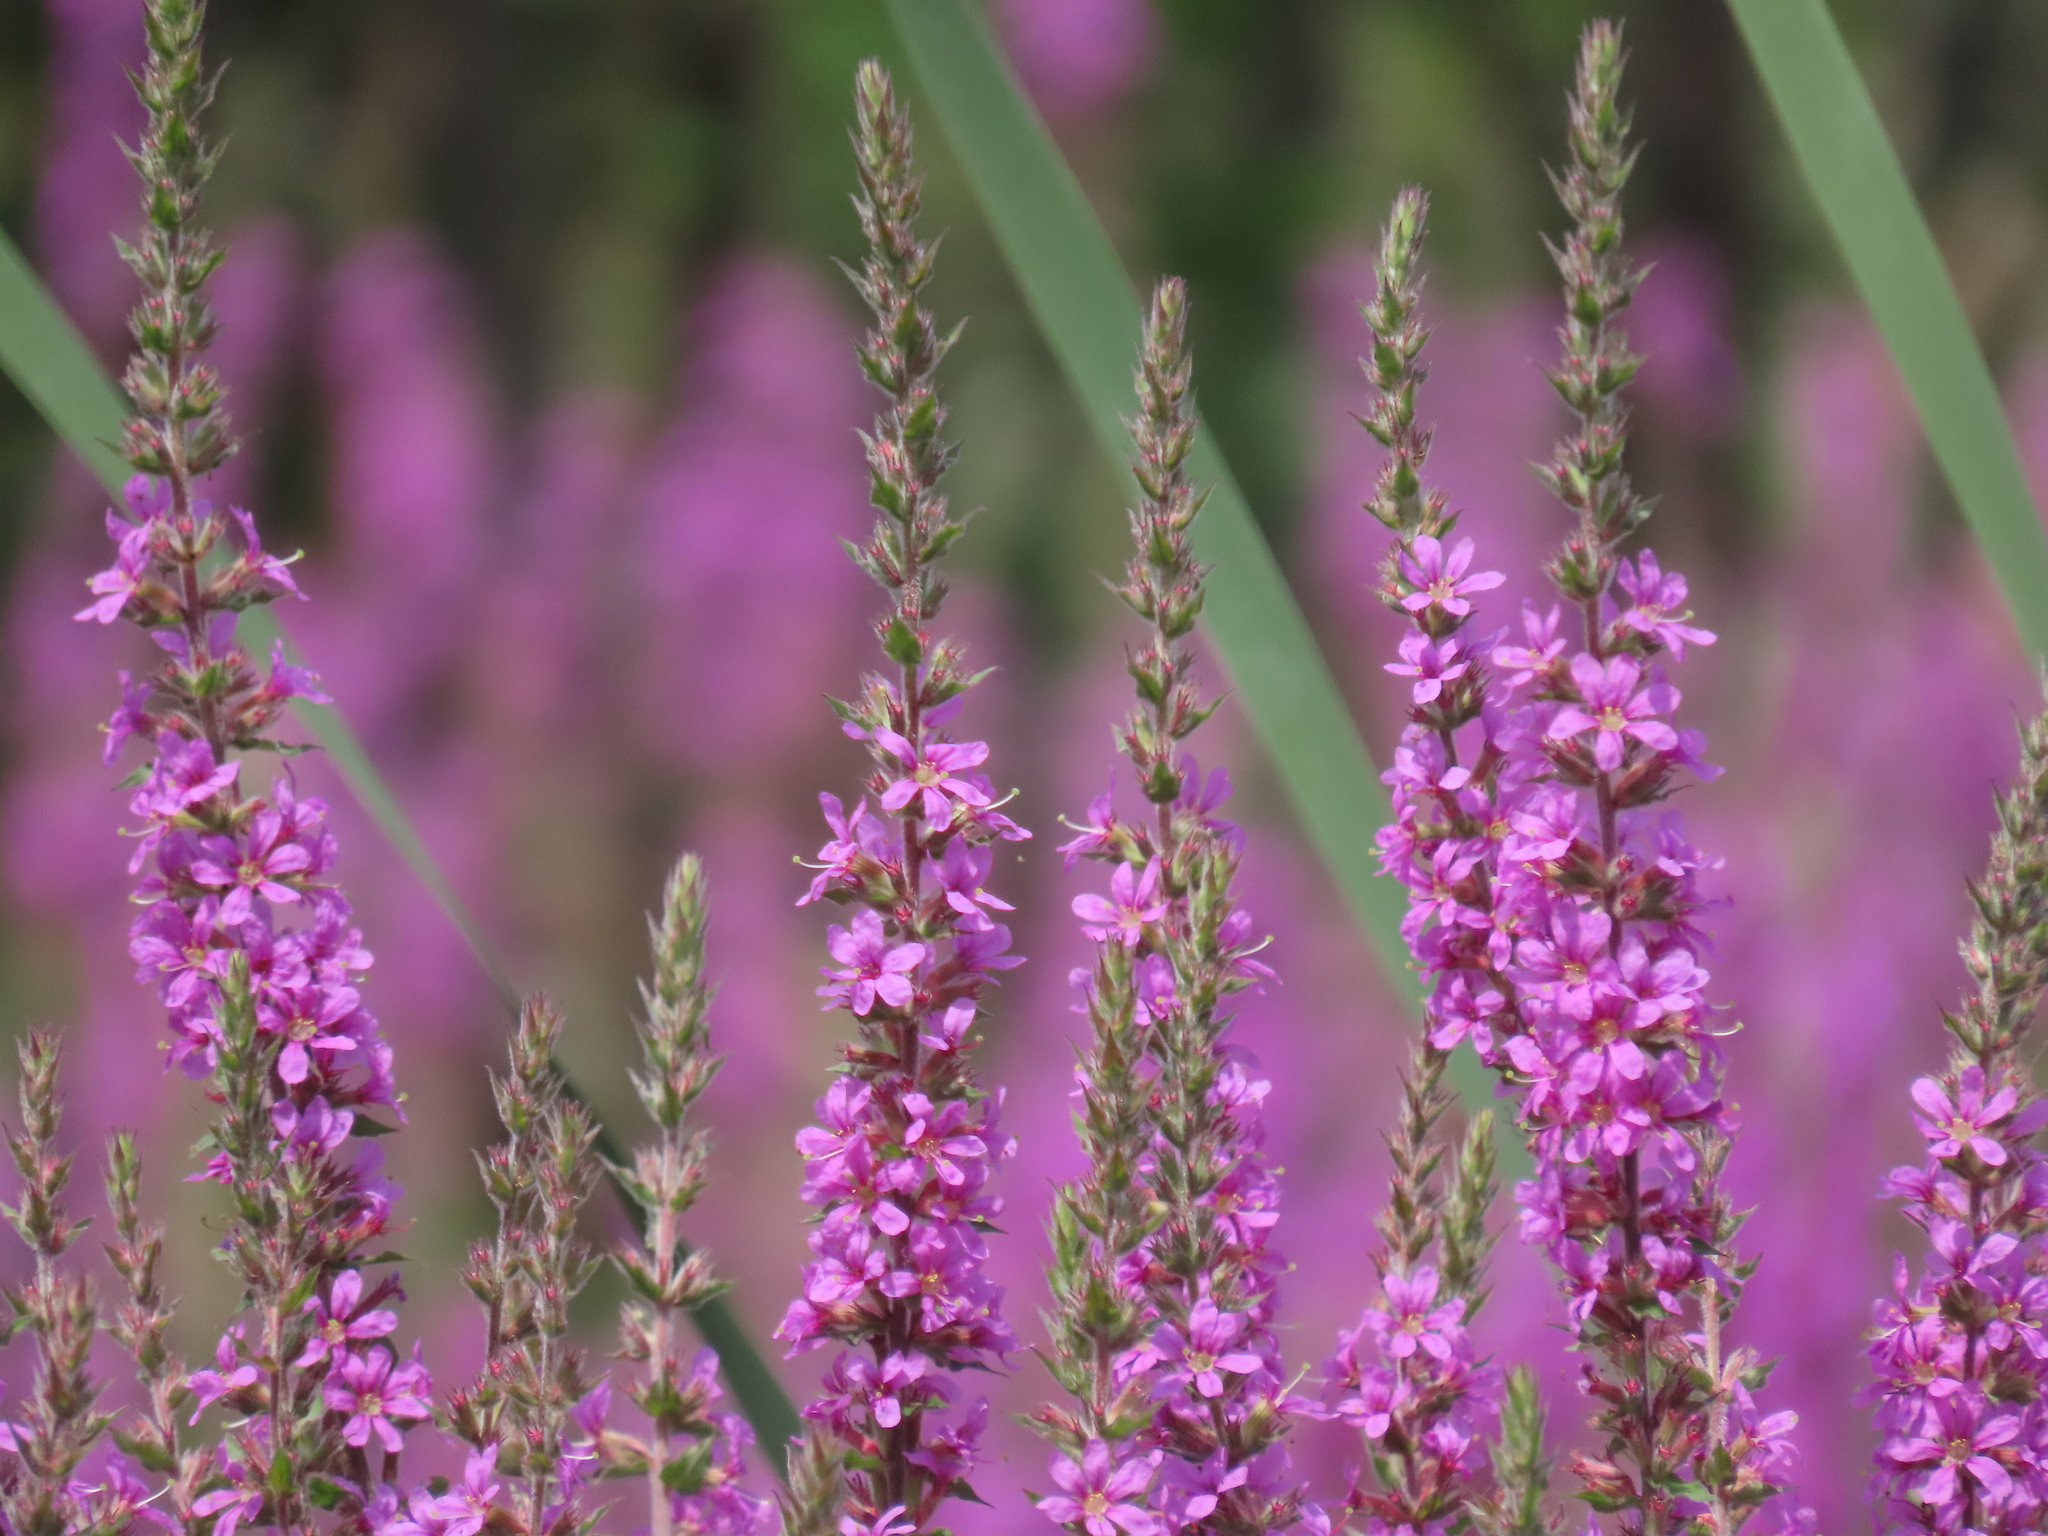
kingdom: Plantae
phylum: Tracheophyta
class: Magnoliopsida
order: Myrtales
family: Lythraceae
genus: Lythrum
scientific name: Lythrum salicaria
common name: Purple loosestrife
